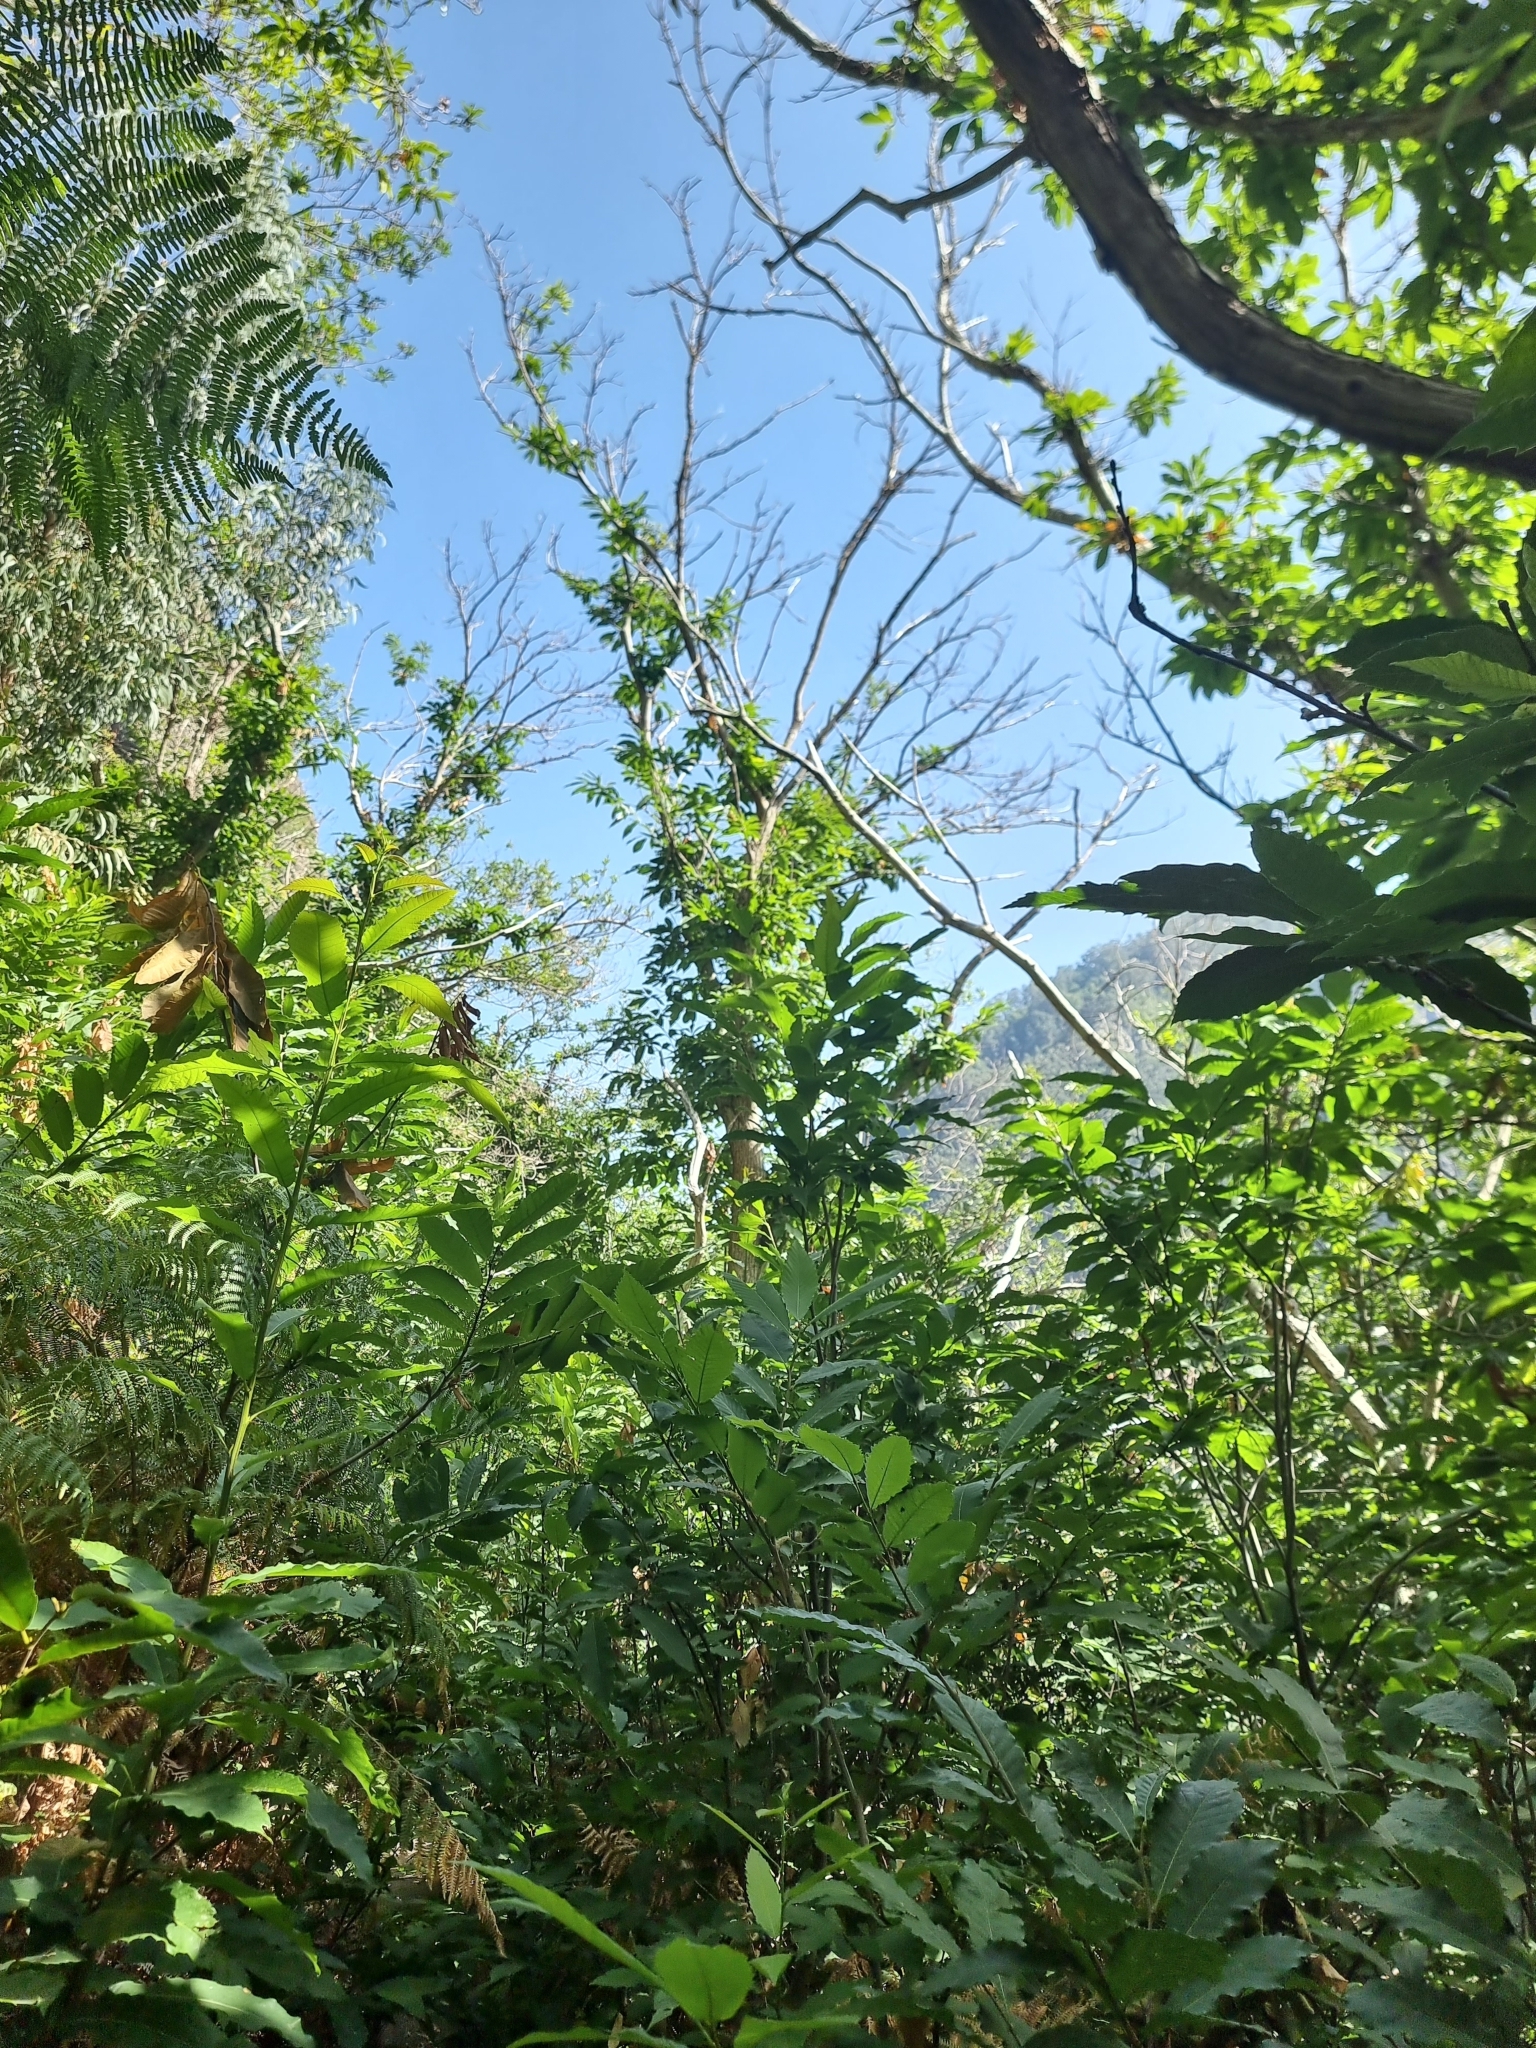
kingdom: Plantae
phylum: Tracheophyta
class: Magnoliopsida
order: Fagales
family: Fagaceae
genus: Castanea
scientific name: Castanea sativa
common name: Sweet chestnut
